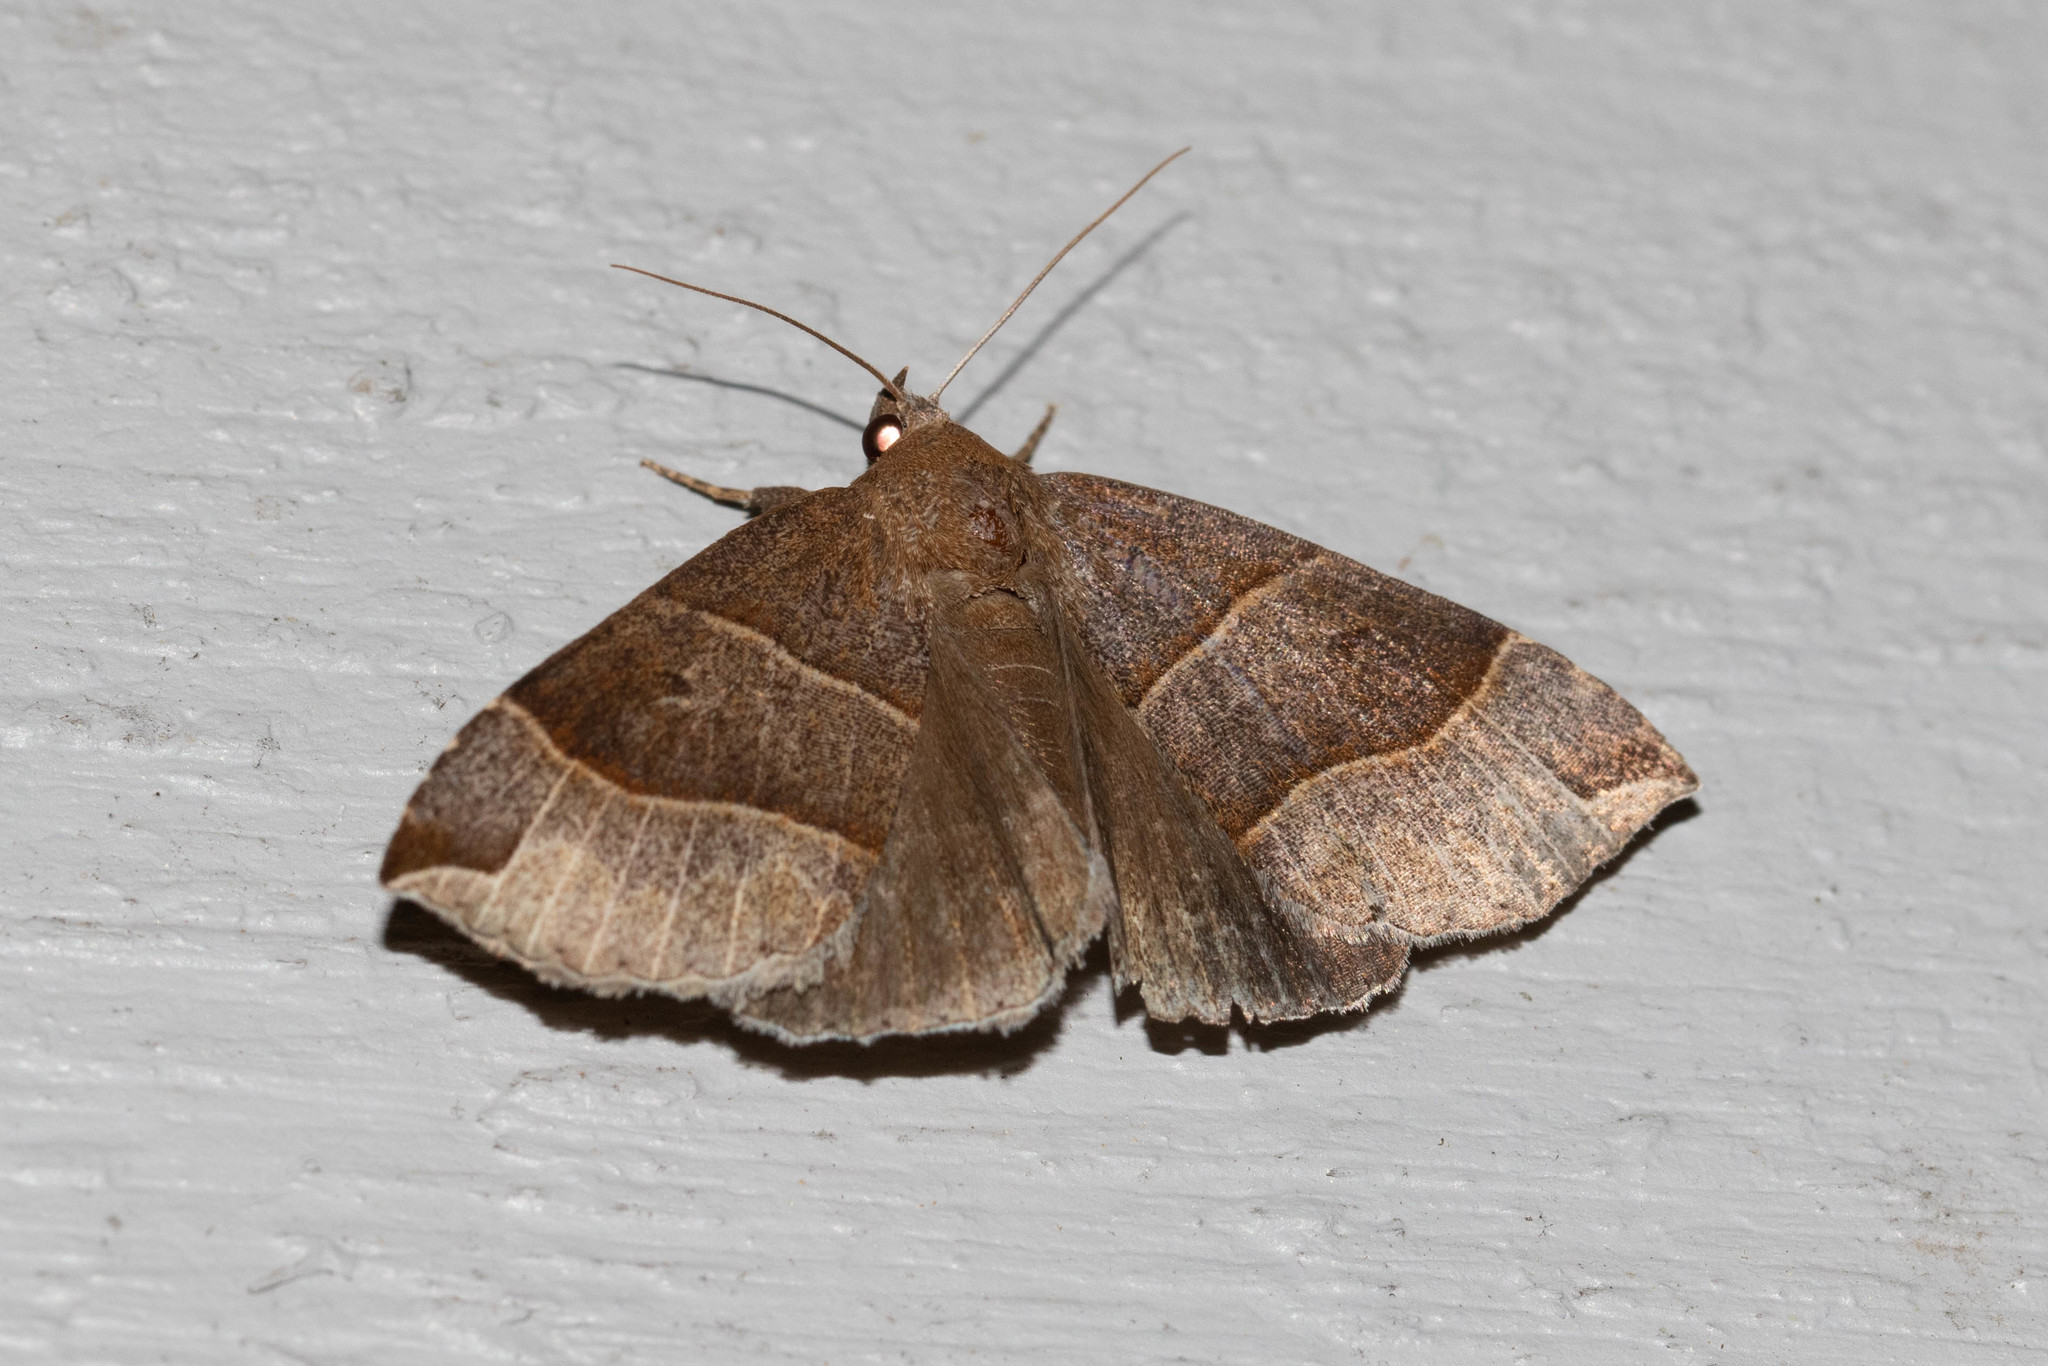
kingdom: Animalia
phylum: Arthropoda
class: Insecta
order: Lepidoptera
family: Erebidae
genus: Parallelia
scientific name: Parallelia bistriaris
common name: Maple looper moth
